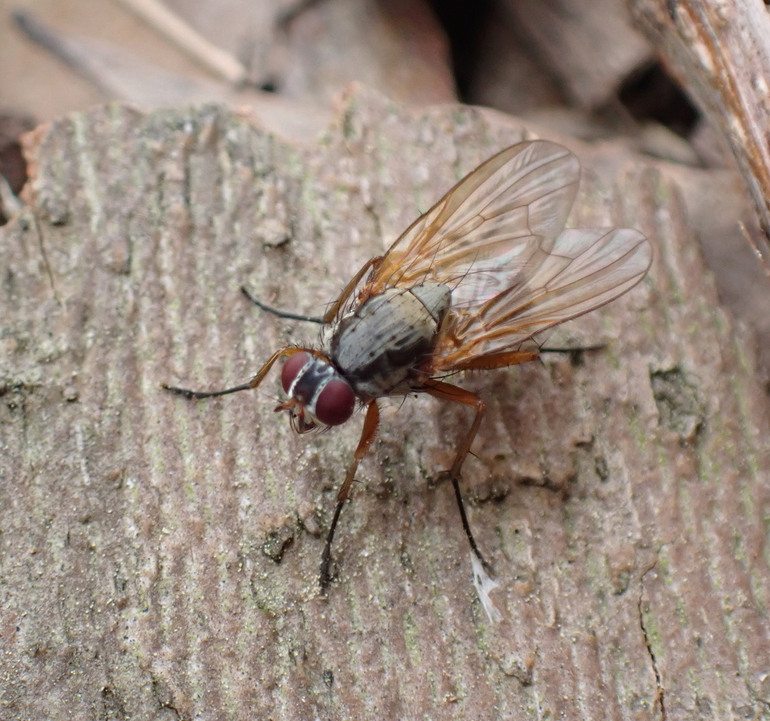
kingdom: Animalia
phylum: Arthropoda
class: Insecta
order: Diptera
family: Anthomyiidae
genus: Eutrichota
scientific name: Eutrichota lipsia
